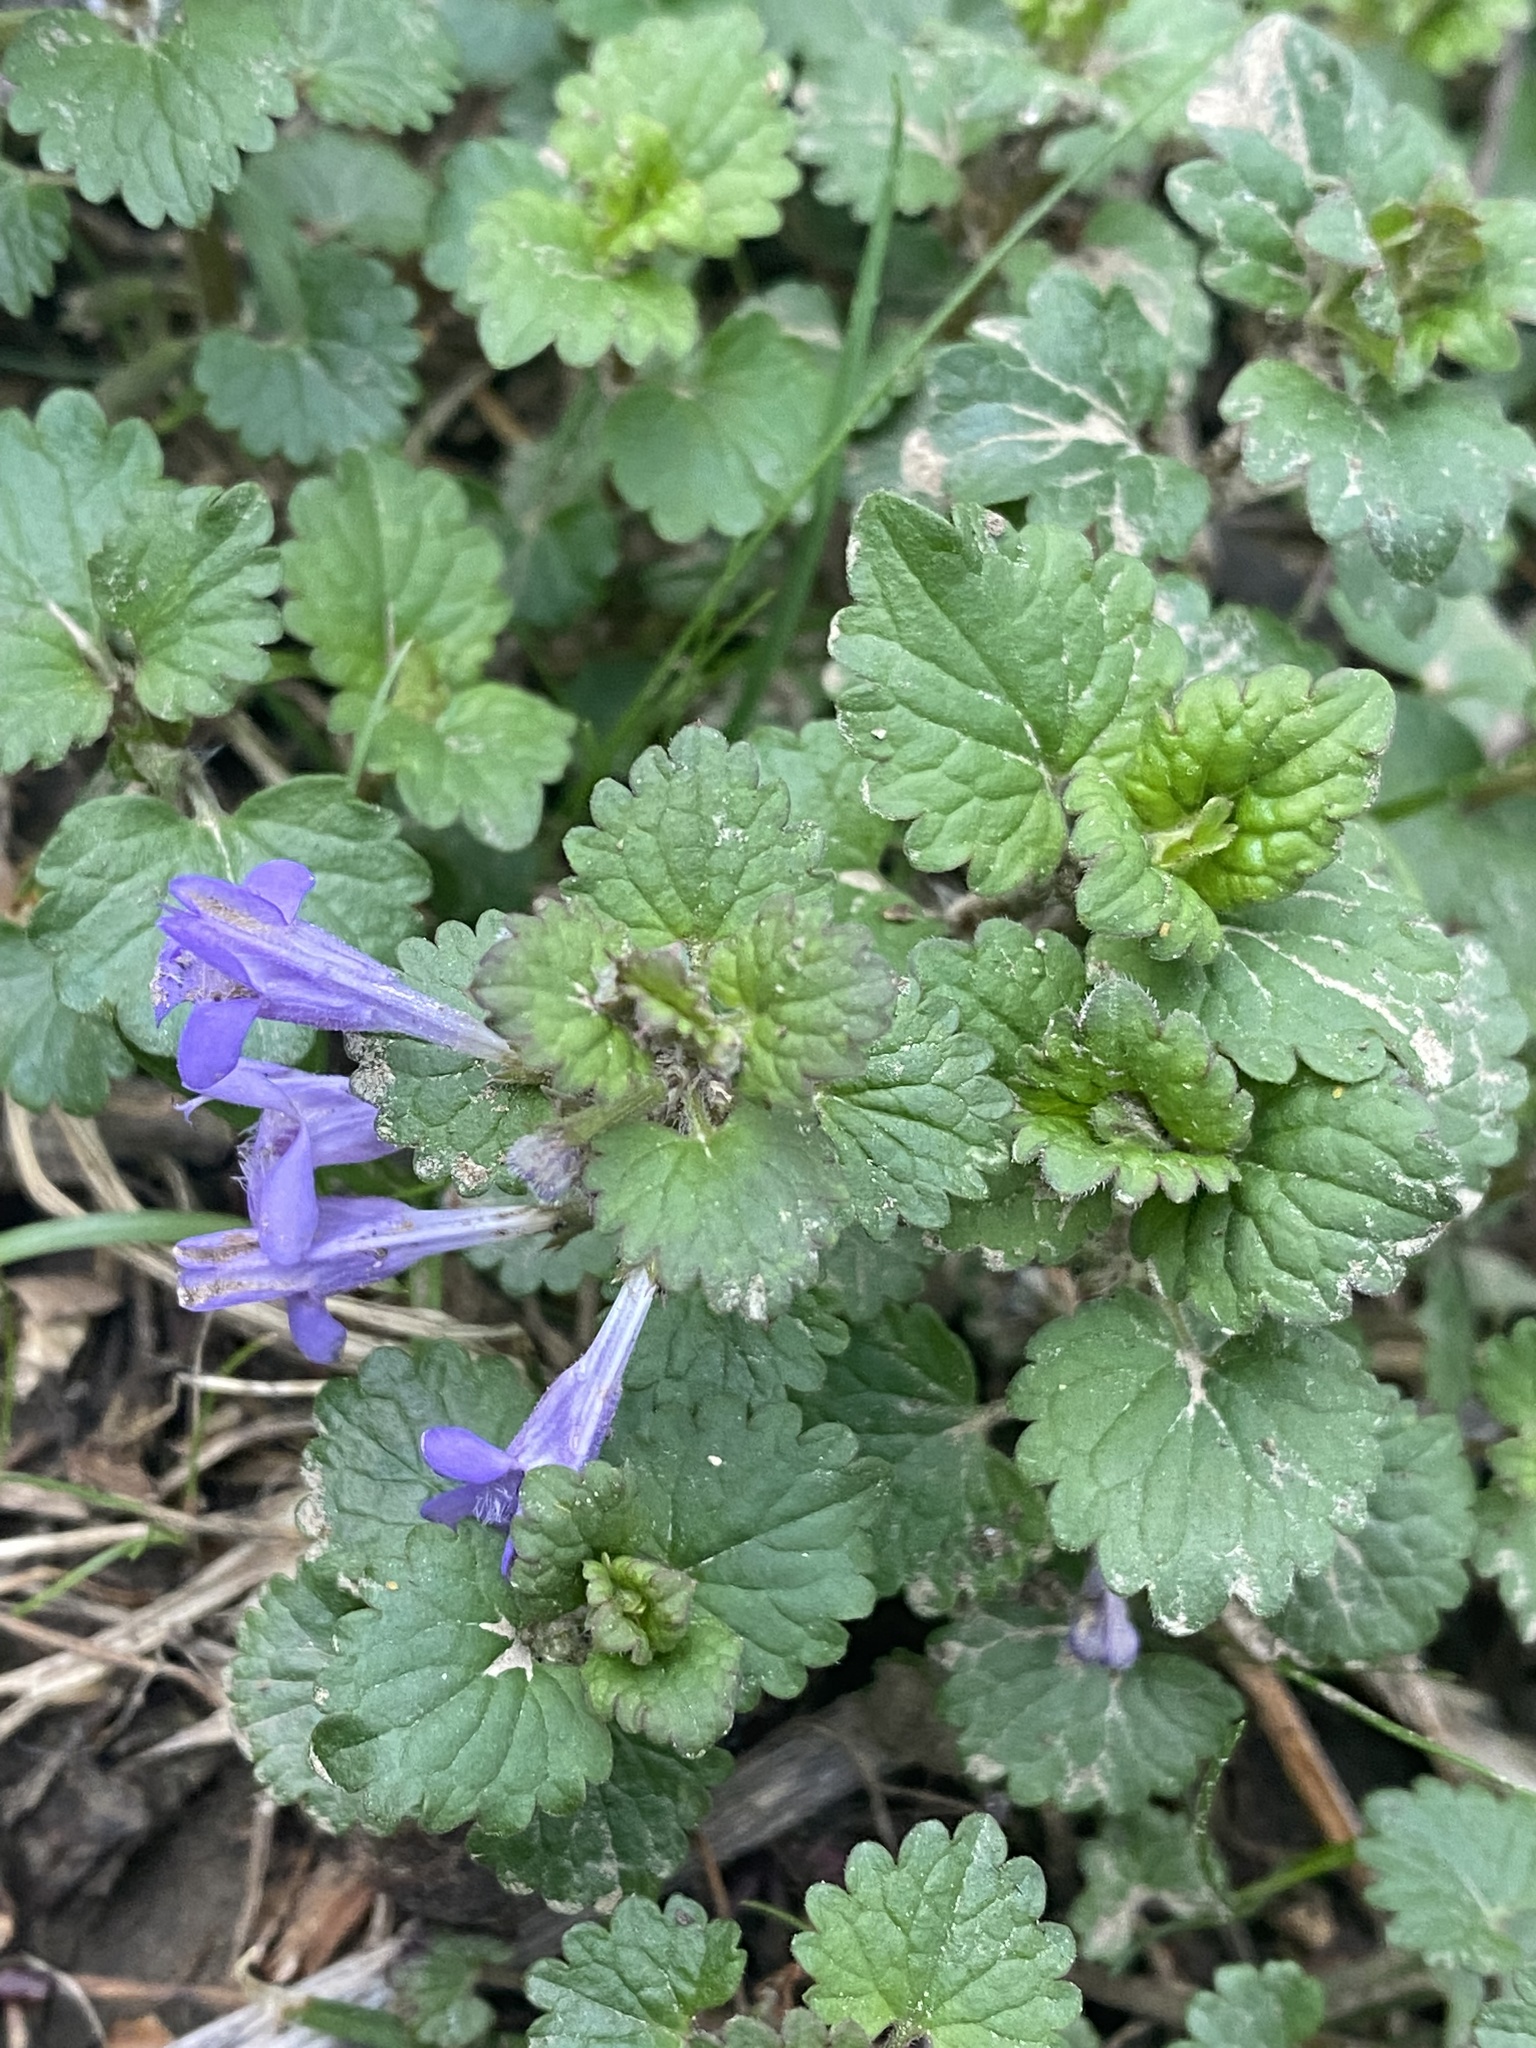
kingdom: Plantae
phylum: Tracheophyta
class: Magnoliopsida
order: Lamiales
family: Lamiaceae
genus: Glechoma
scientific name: Glechoma hederacea
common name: Ground ivy
